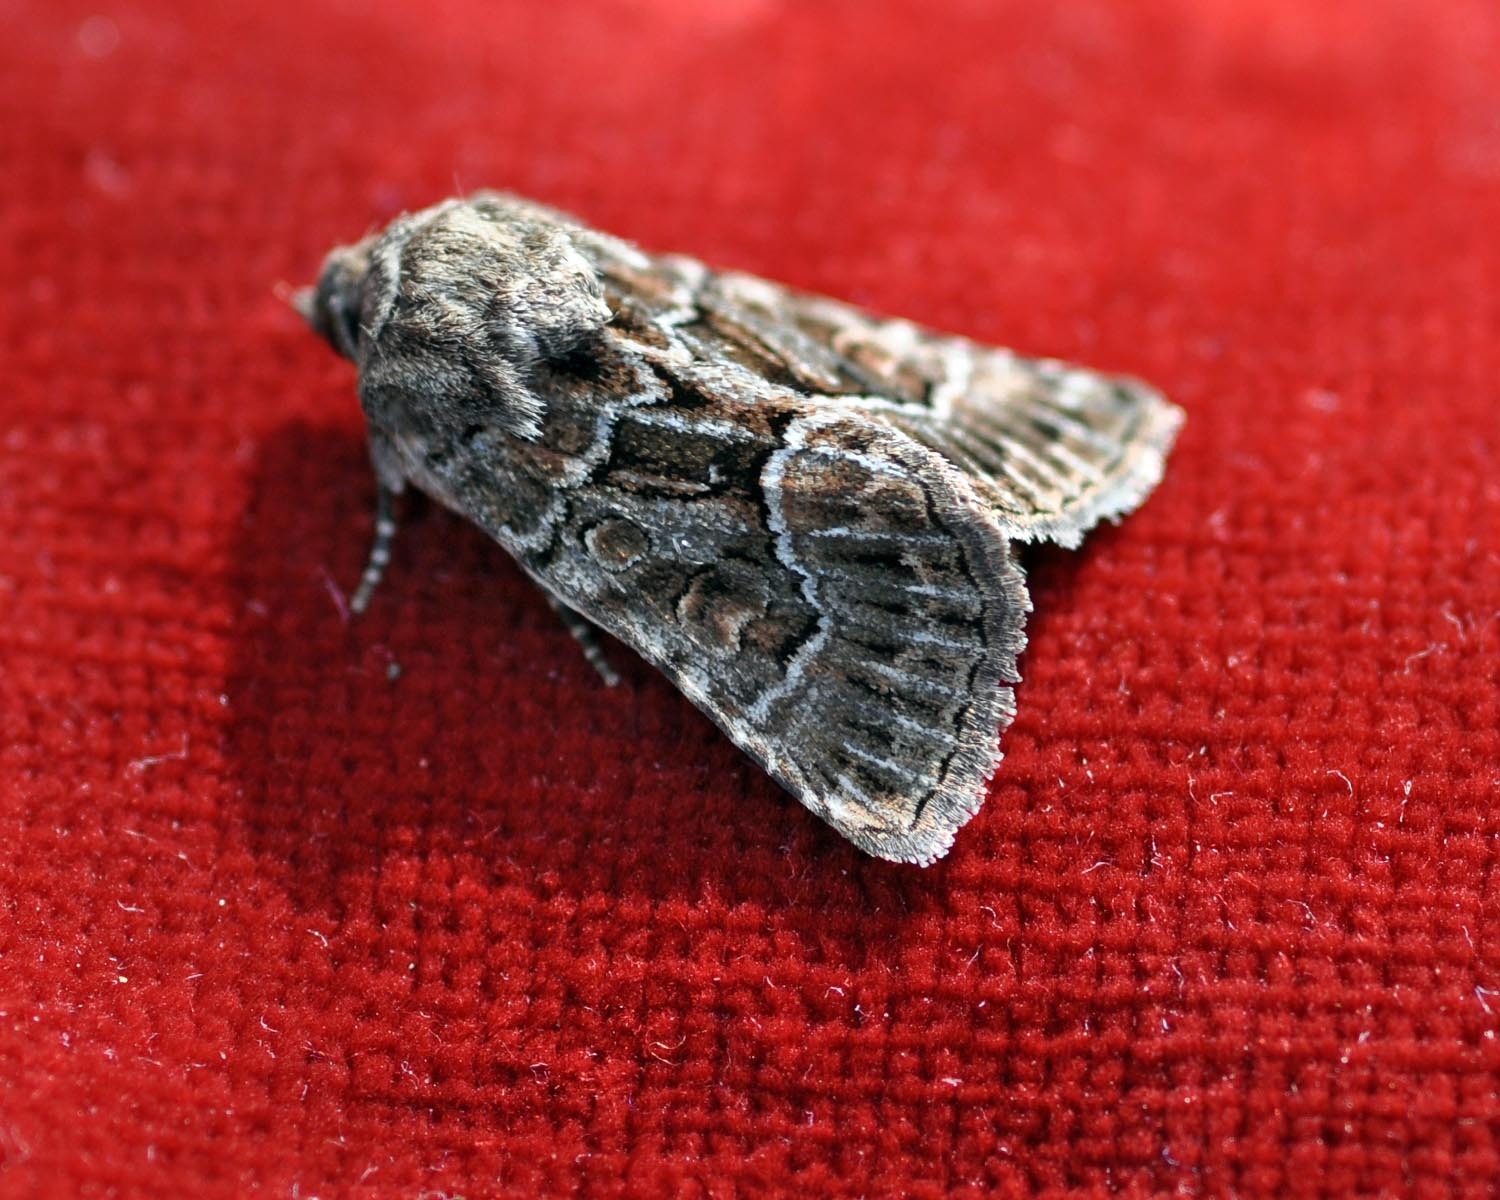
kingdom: Animalia
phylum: Arthropoda
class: Insecta
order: Lepidoptera
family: Noctuidae
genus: Thalpophila
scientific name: Thalpophila matura
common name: Straw underwing
